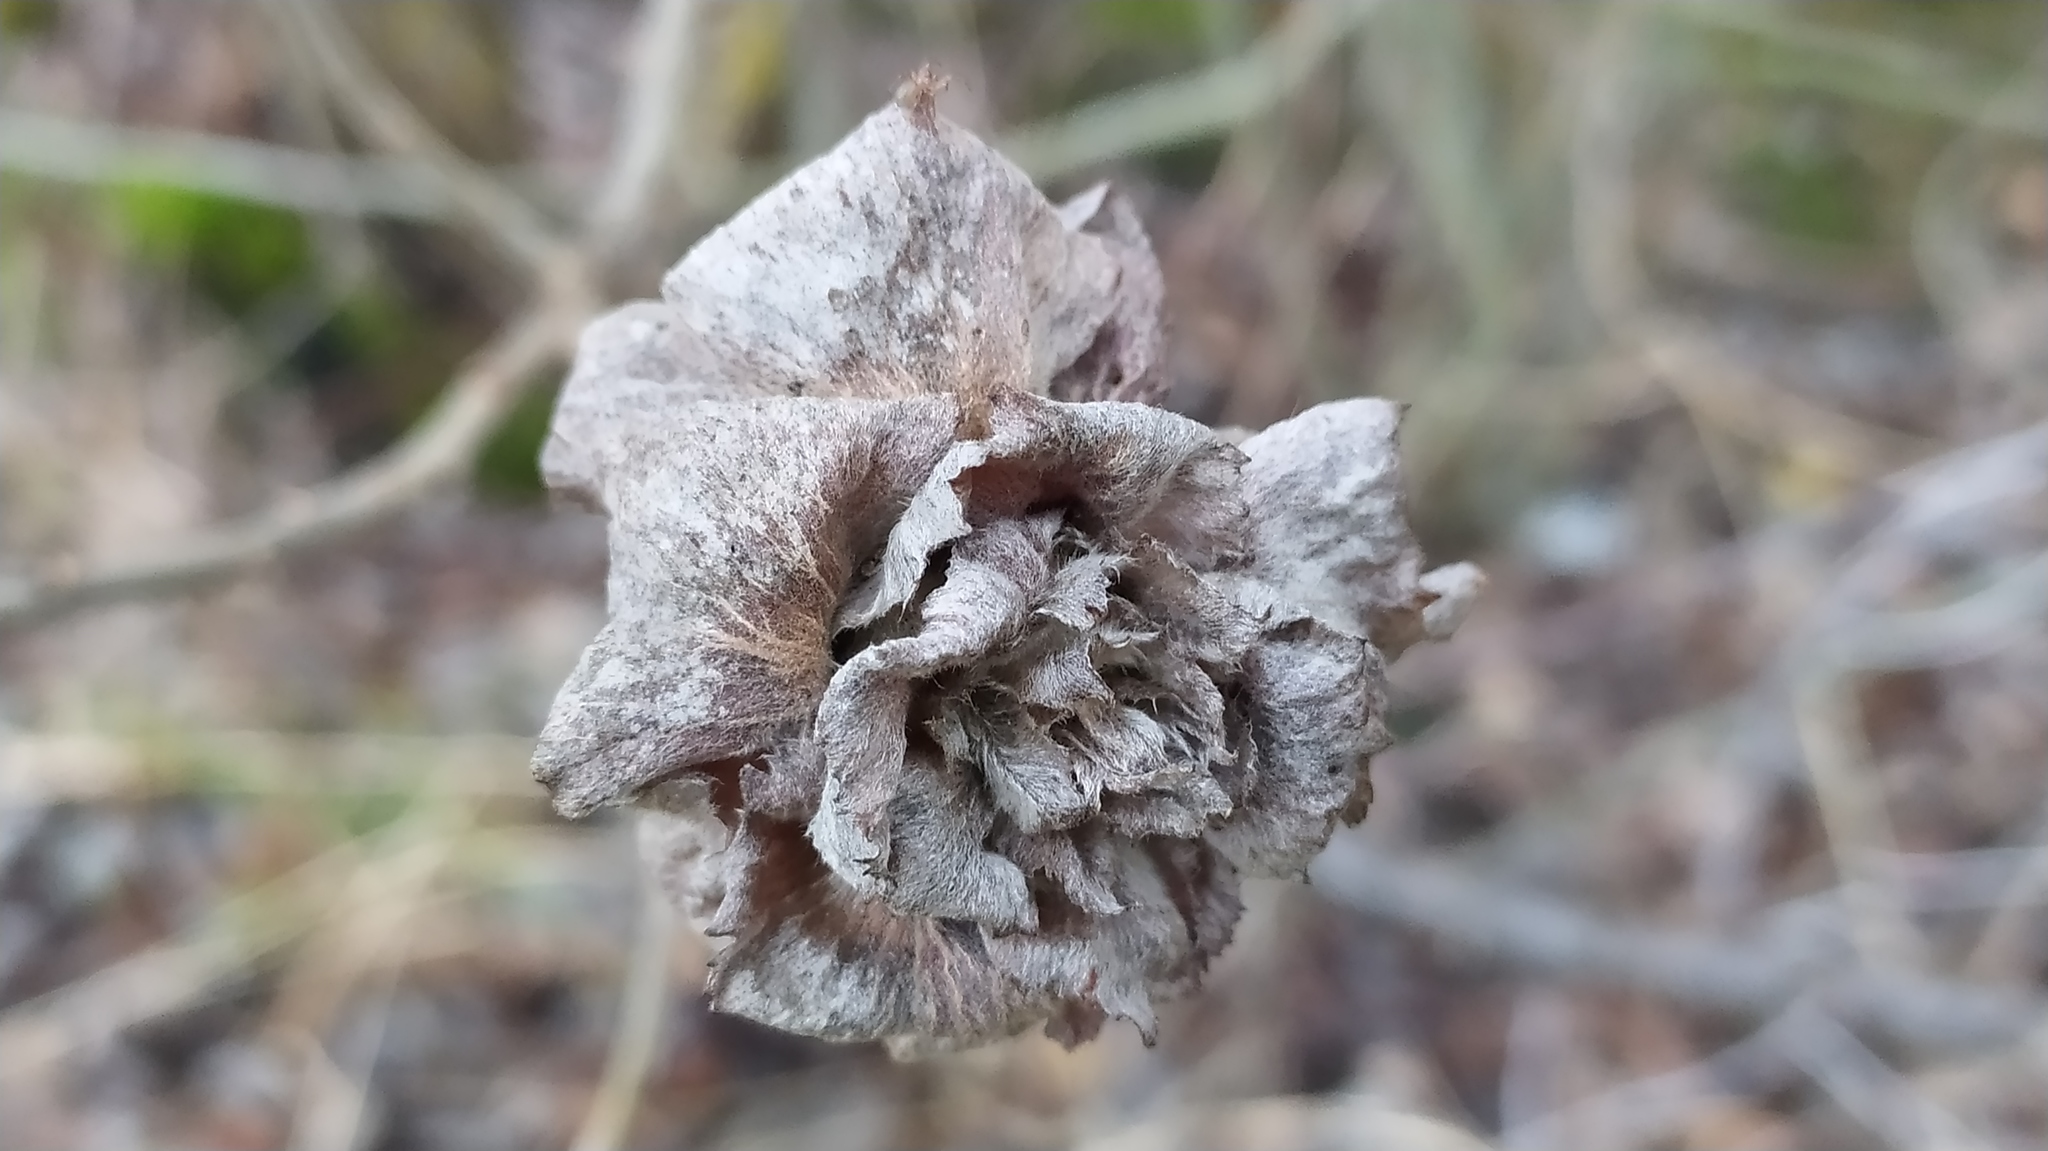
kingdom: Animalia
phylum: Arthropoda
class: Insecta
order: Diptera
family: Cecidomyiidae
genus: Rabdophaga
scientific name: Rabdophaga rosaria
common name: Willow rose gall midge
